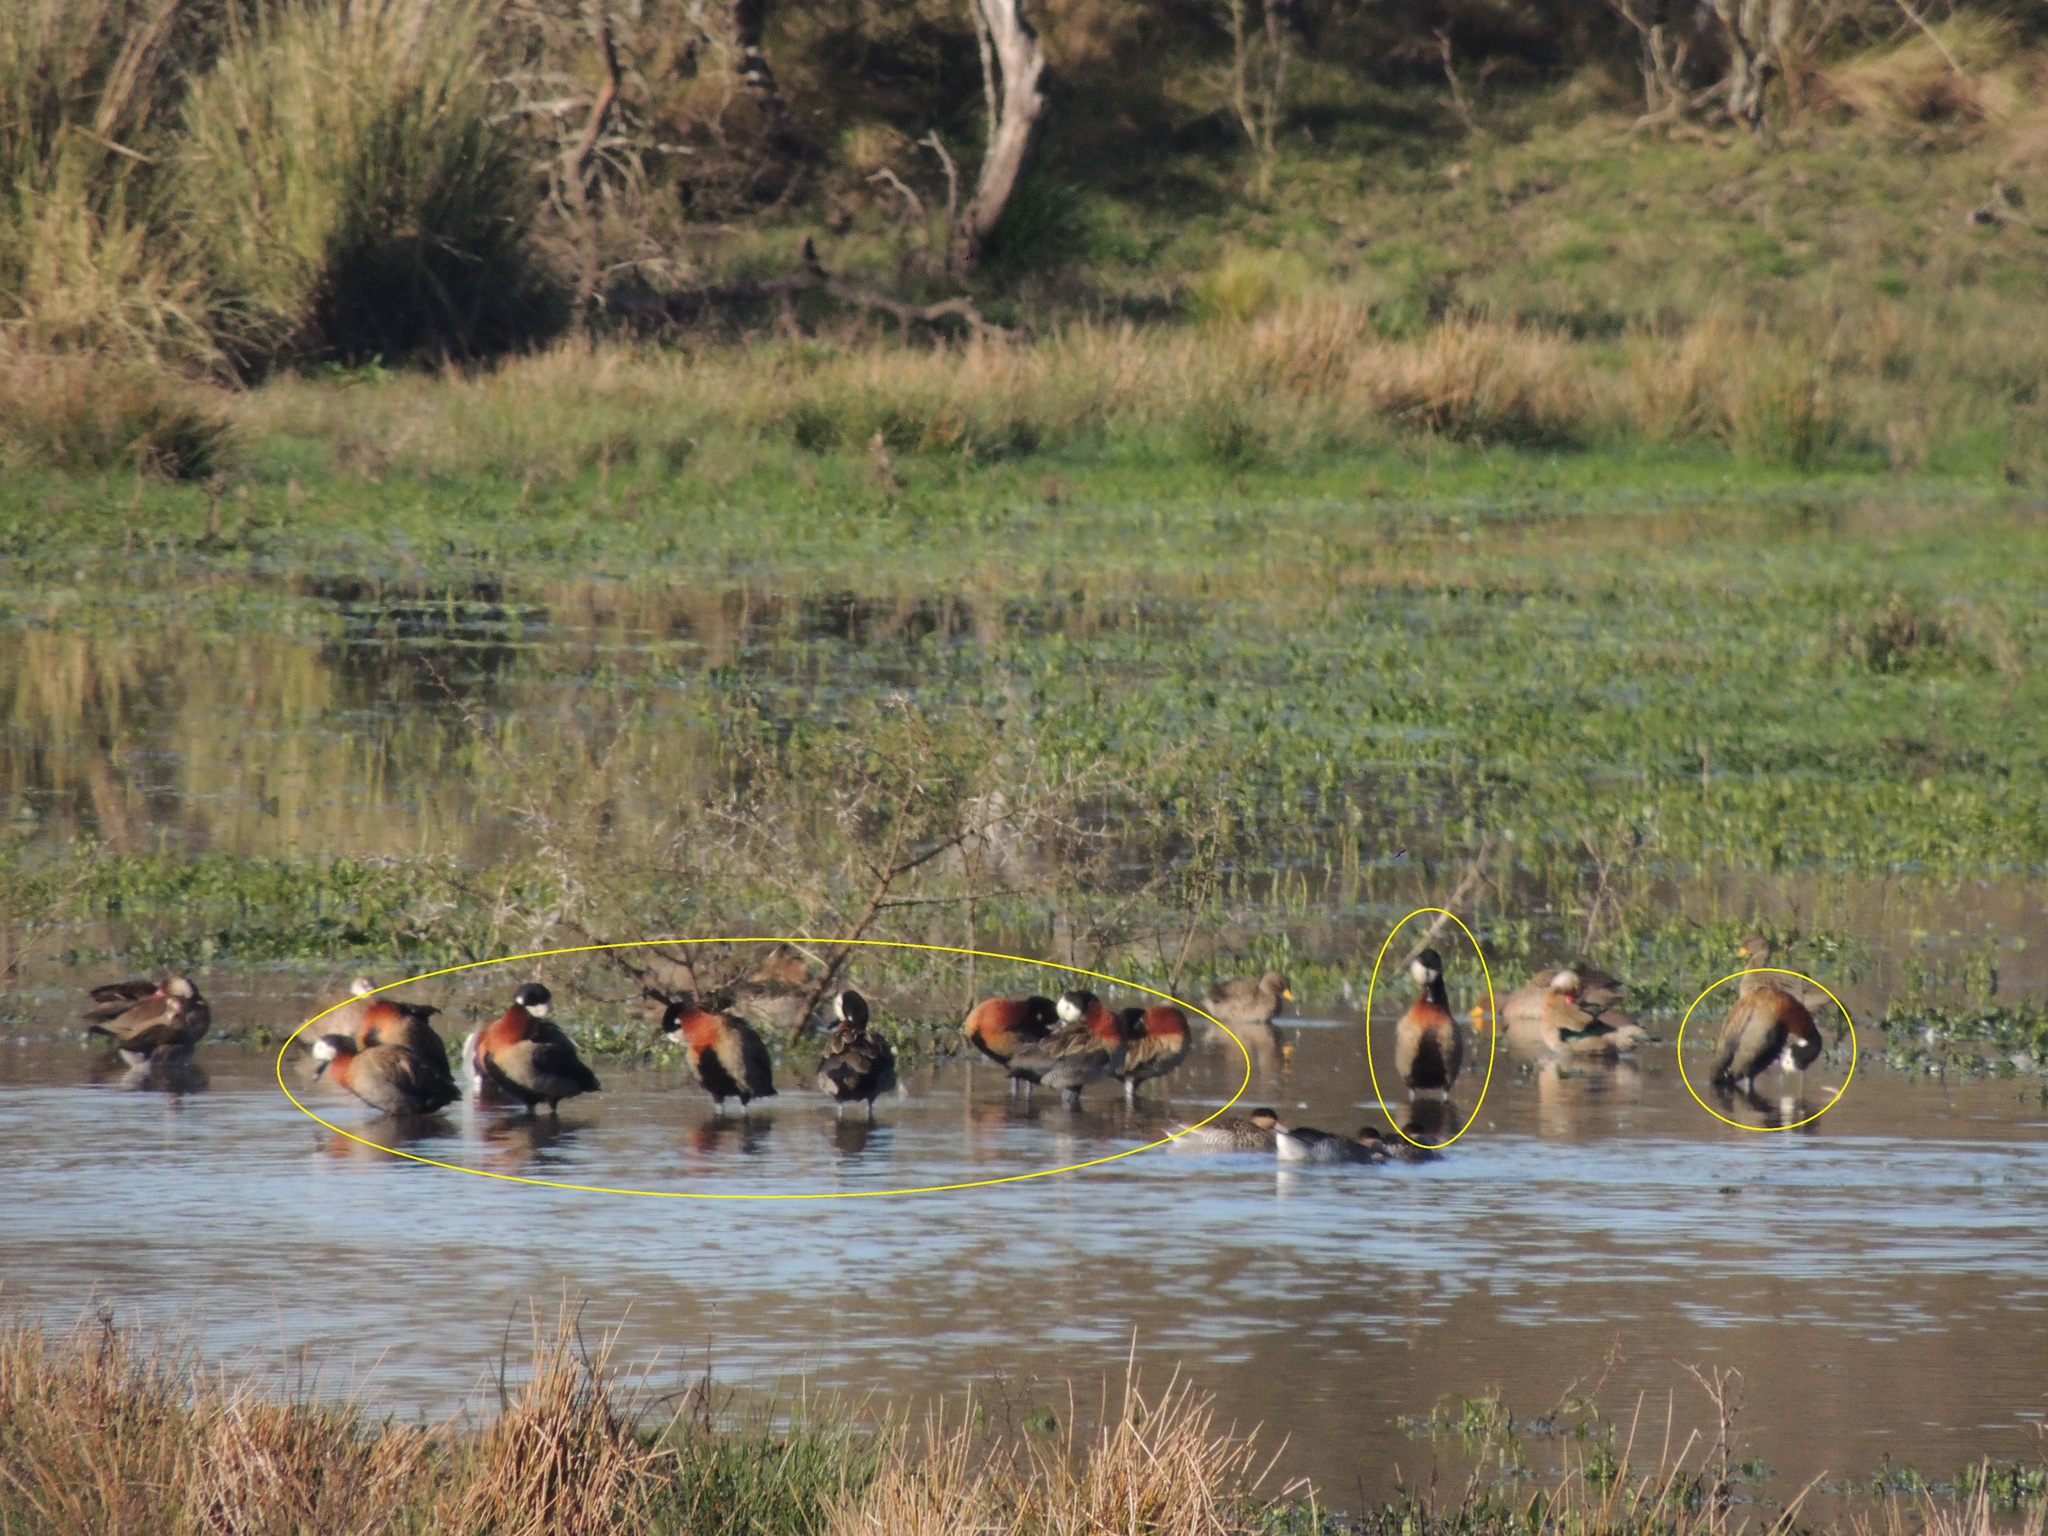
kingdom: Animalia
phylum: Chordata
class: Aves
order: Anseriformes
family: Anatidae
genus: Dendrocygna
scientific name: Dendrocygna viduata
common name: White-faced whistling duck
